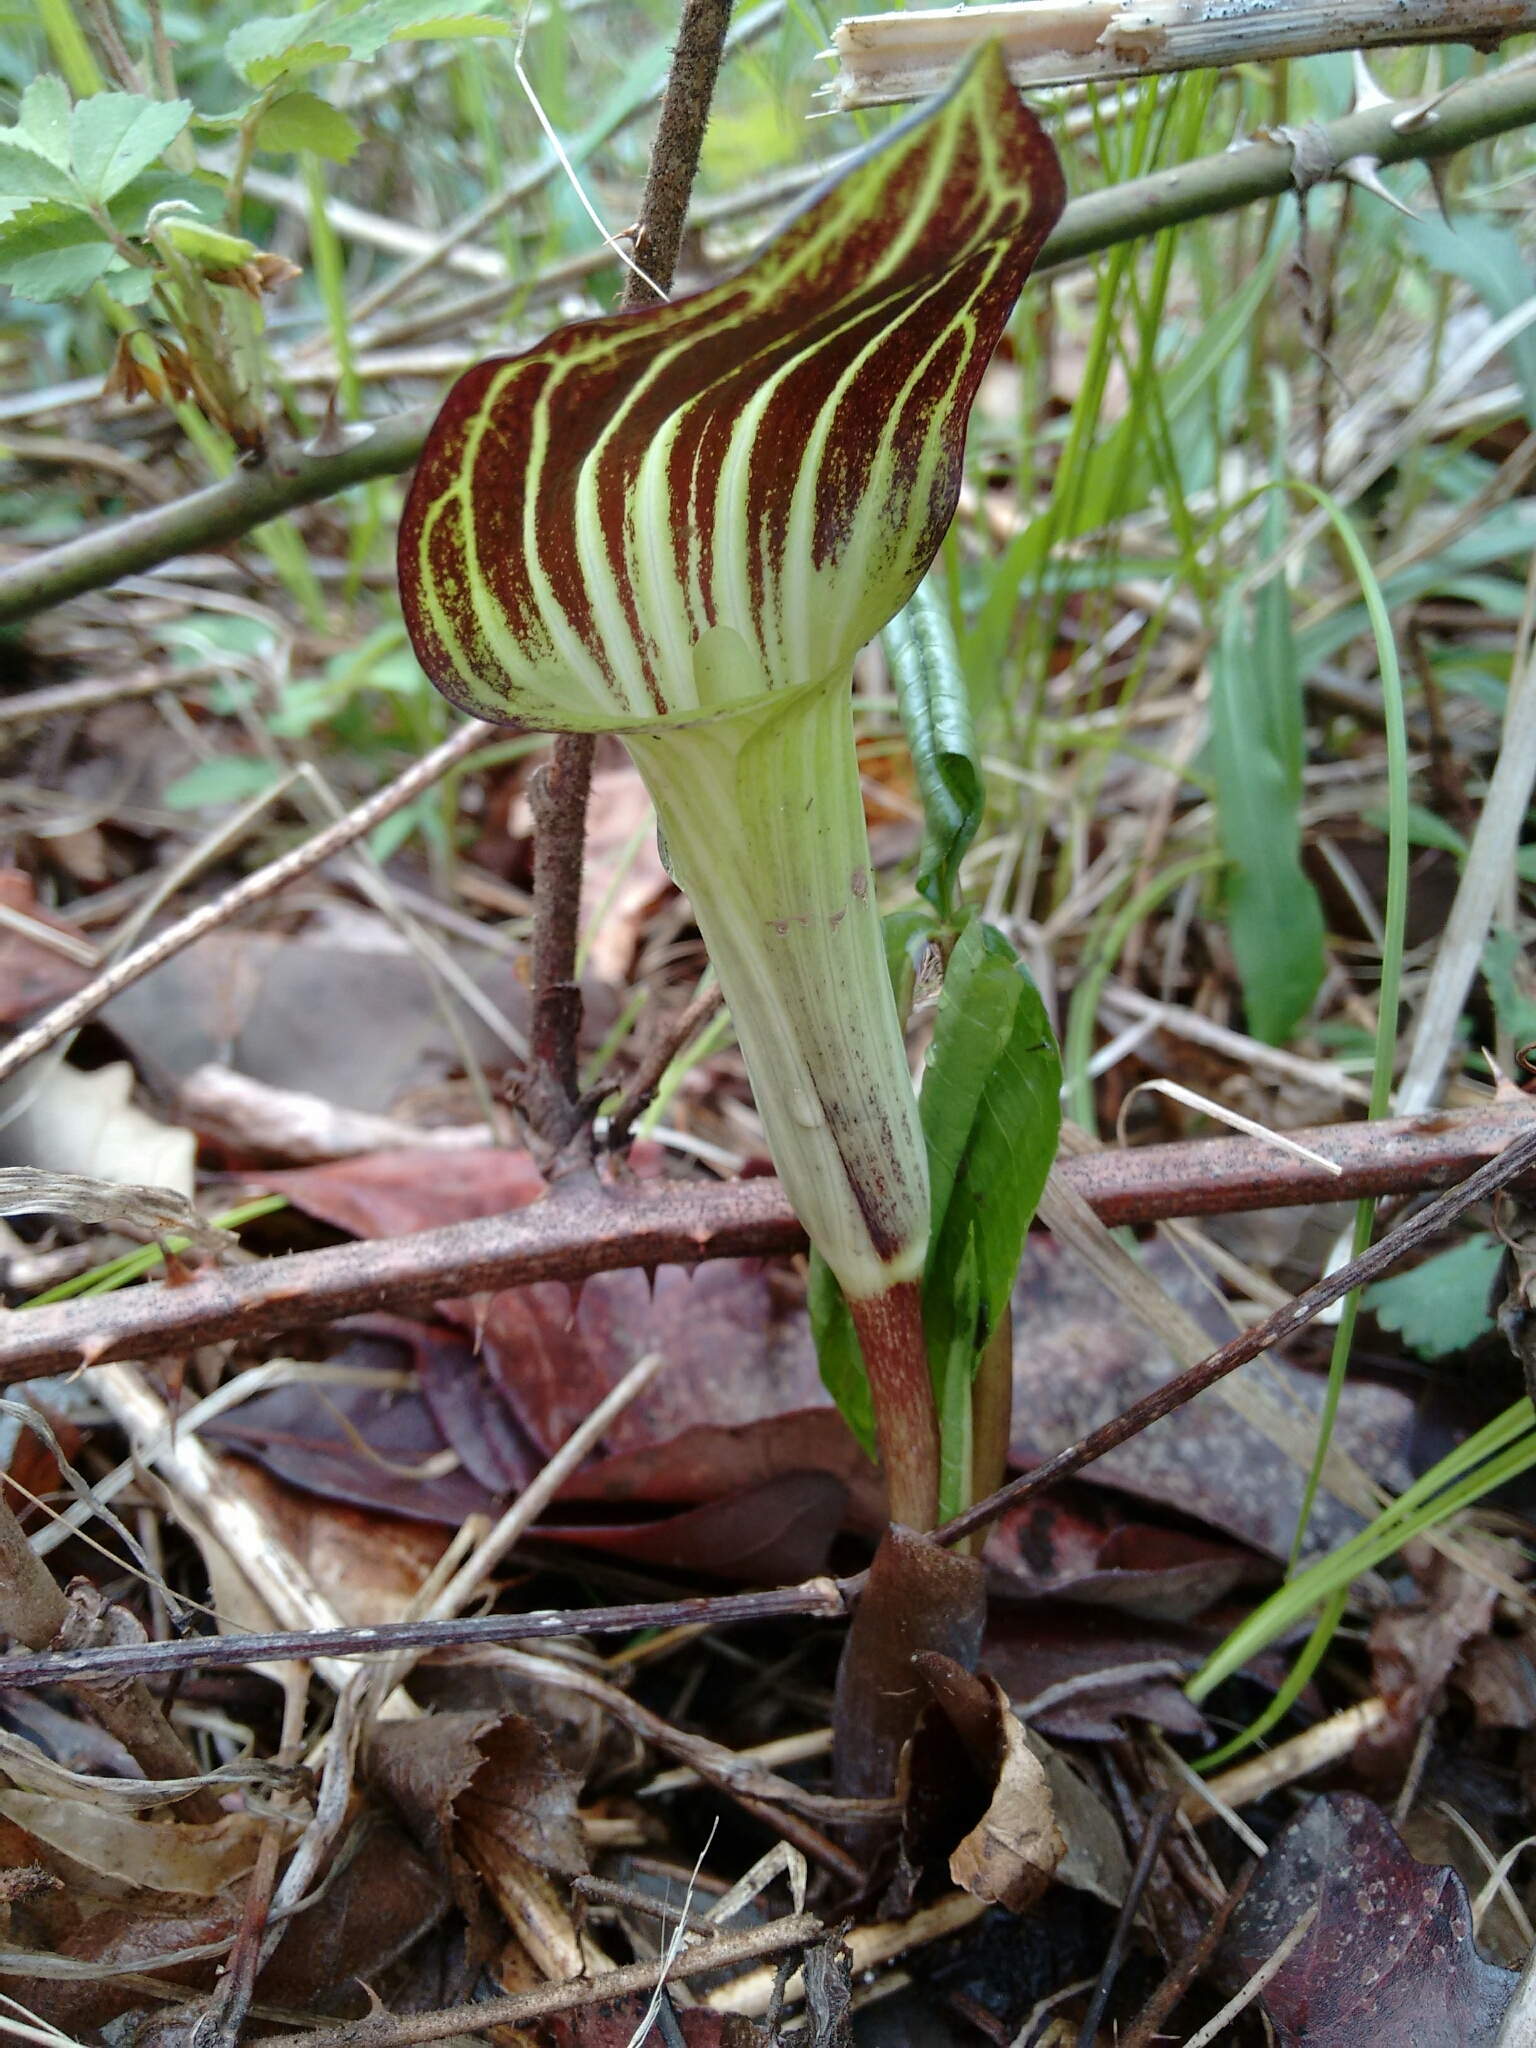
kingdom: Plantae
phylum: Tracheophyta
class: Liliopsida
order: Alismatales
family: Araceae
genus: Arisaema
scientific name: Arisaema triphyllum
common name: Jack-in-the-pulpit
